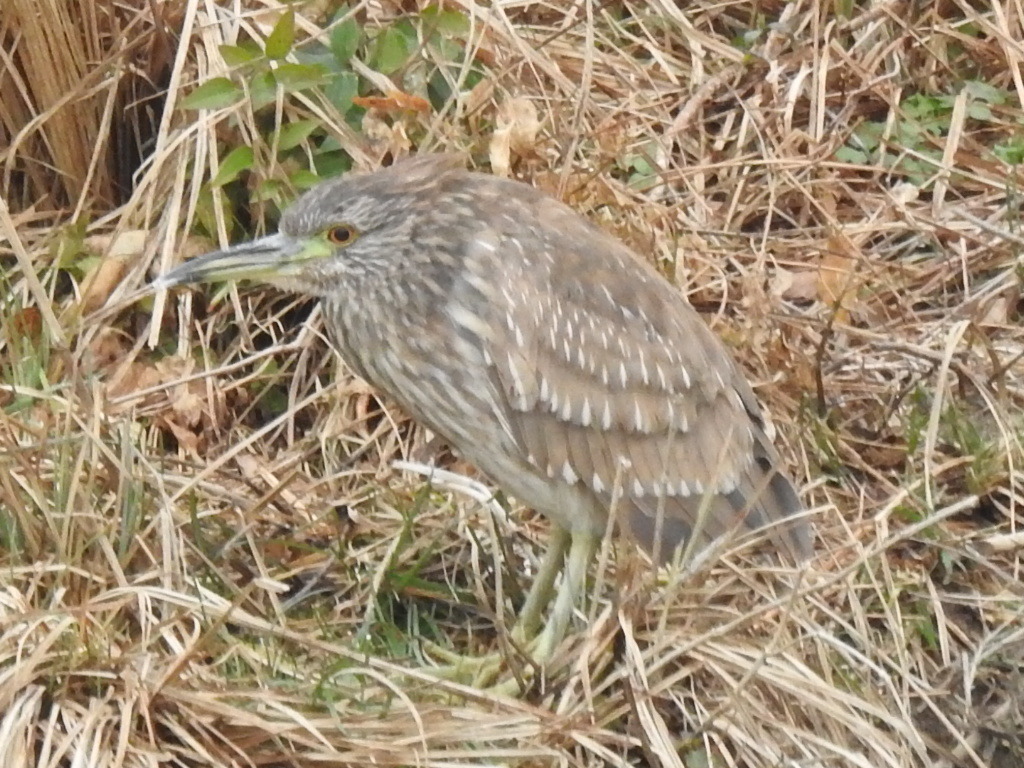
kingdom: Animalia
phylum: Chordata
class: Aves
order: Pelecaniformes
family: Ardeidae
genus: Nycticorax
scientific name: Nycticorax nycticorax
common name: Black-crowned night heron
